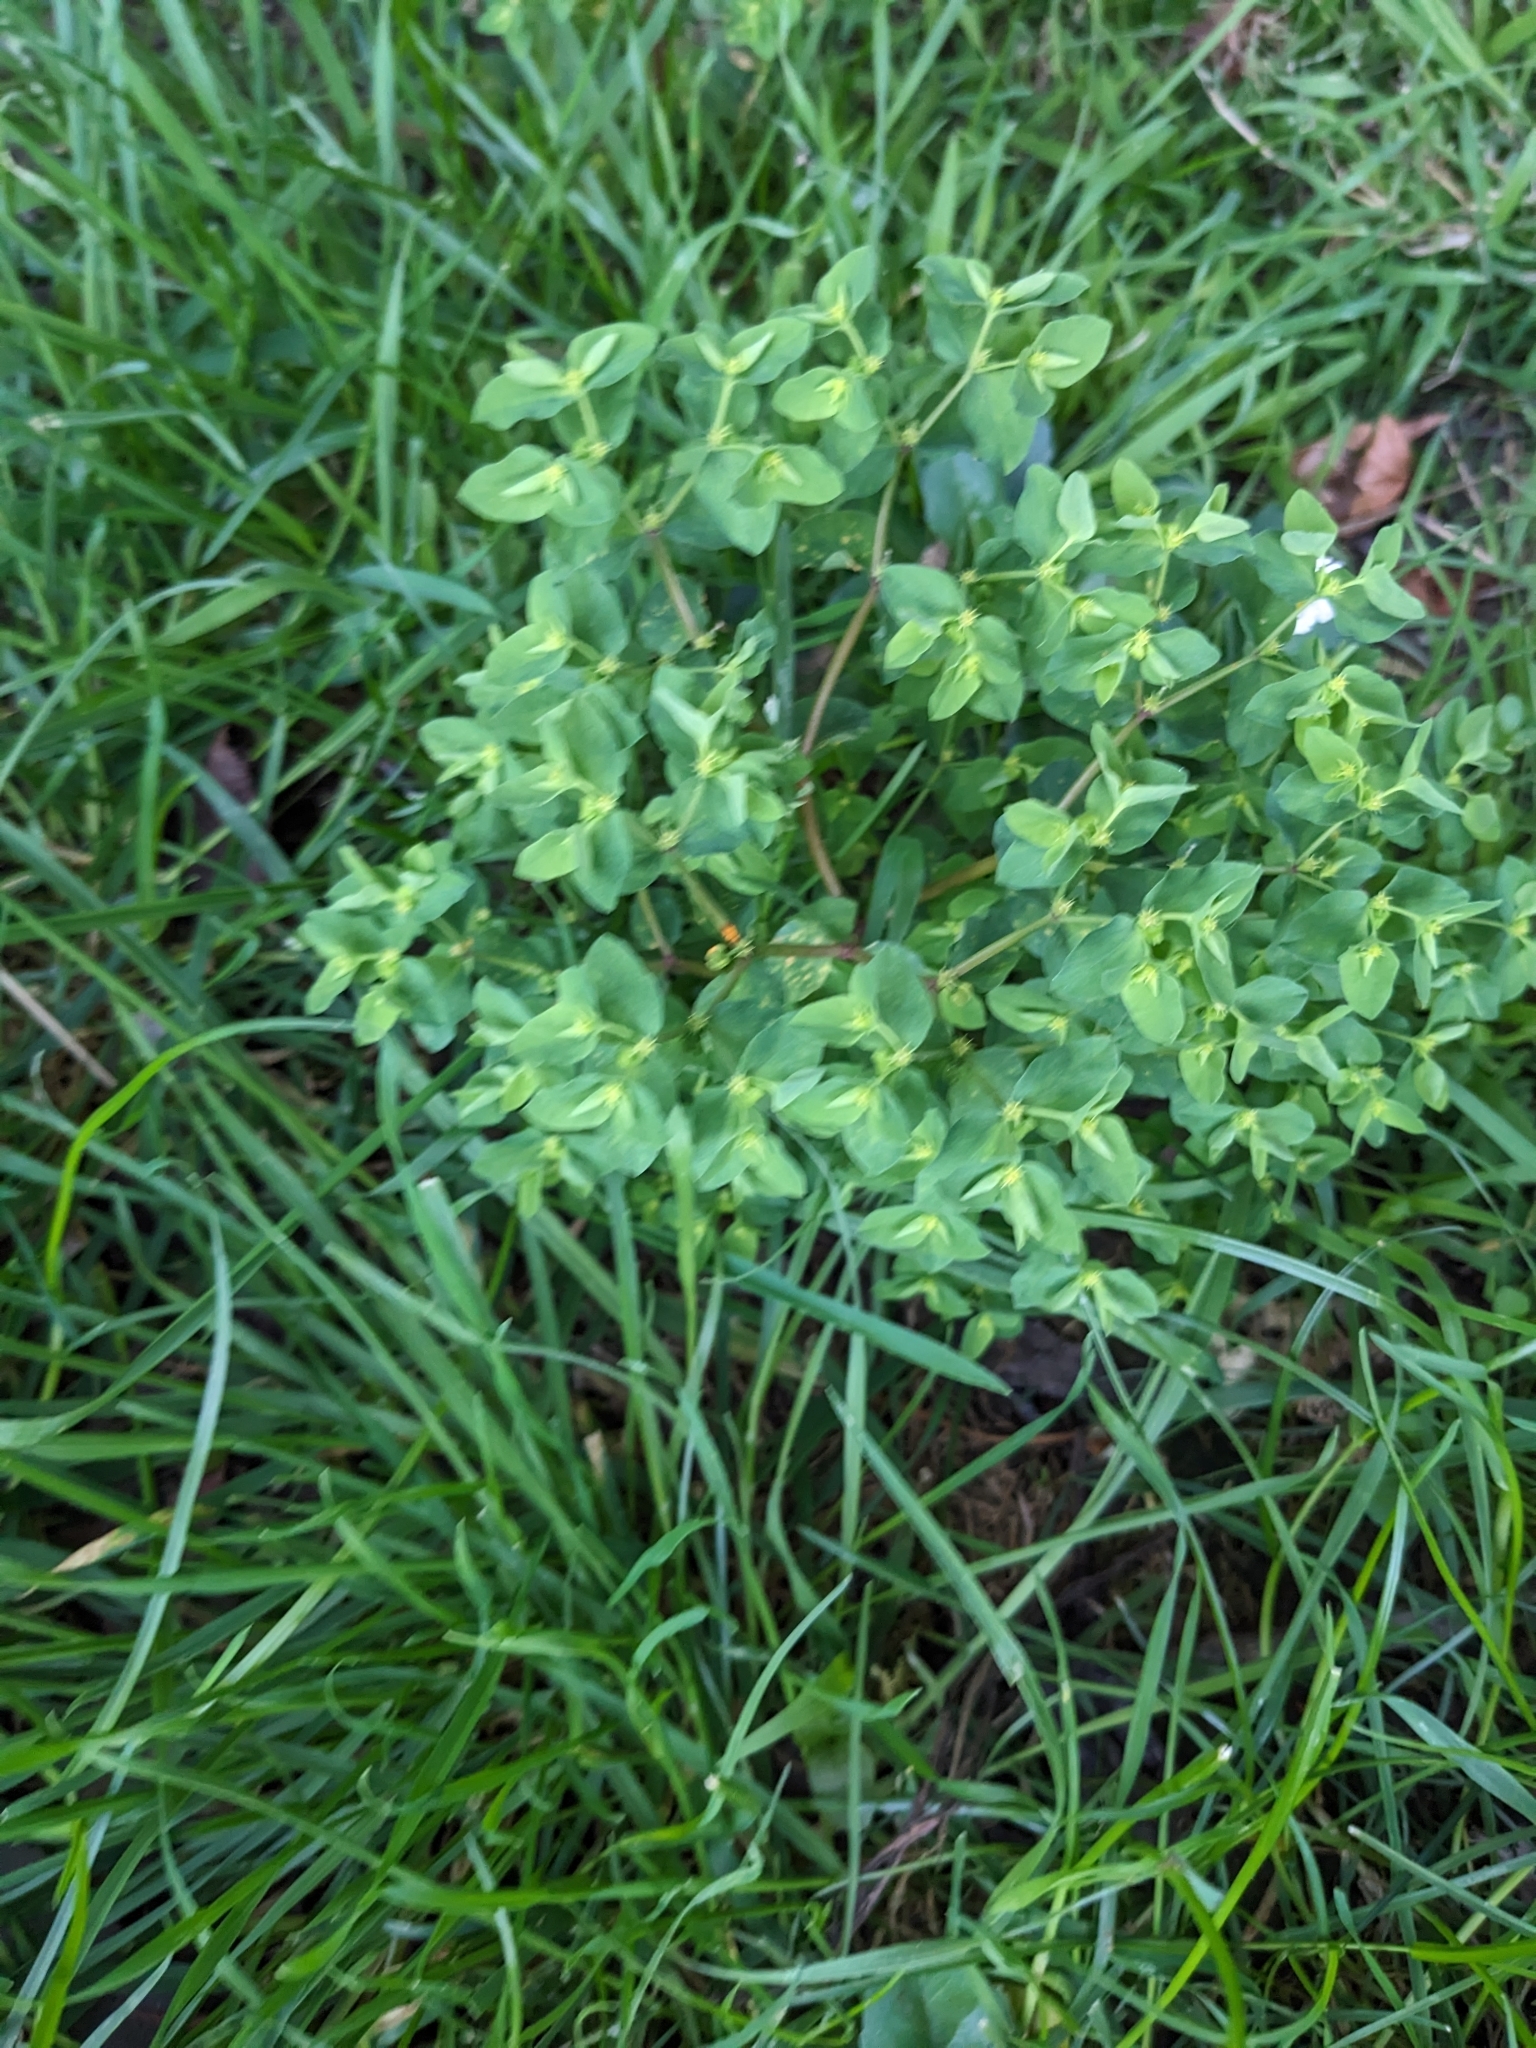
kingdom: Plantae
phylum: Tracheophyta
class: Magnoliopsida
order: Malpighiales
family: Euphorbiaceae
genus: Euphorbia
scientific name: Euphorbia peplus
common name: Petty spurge
